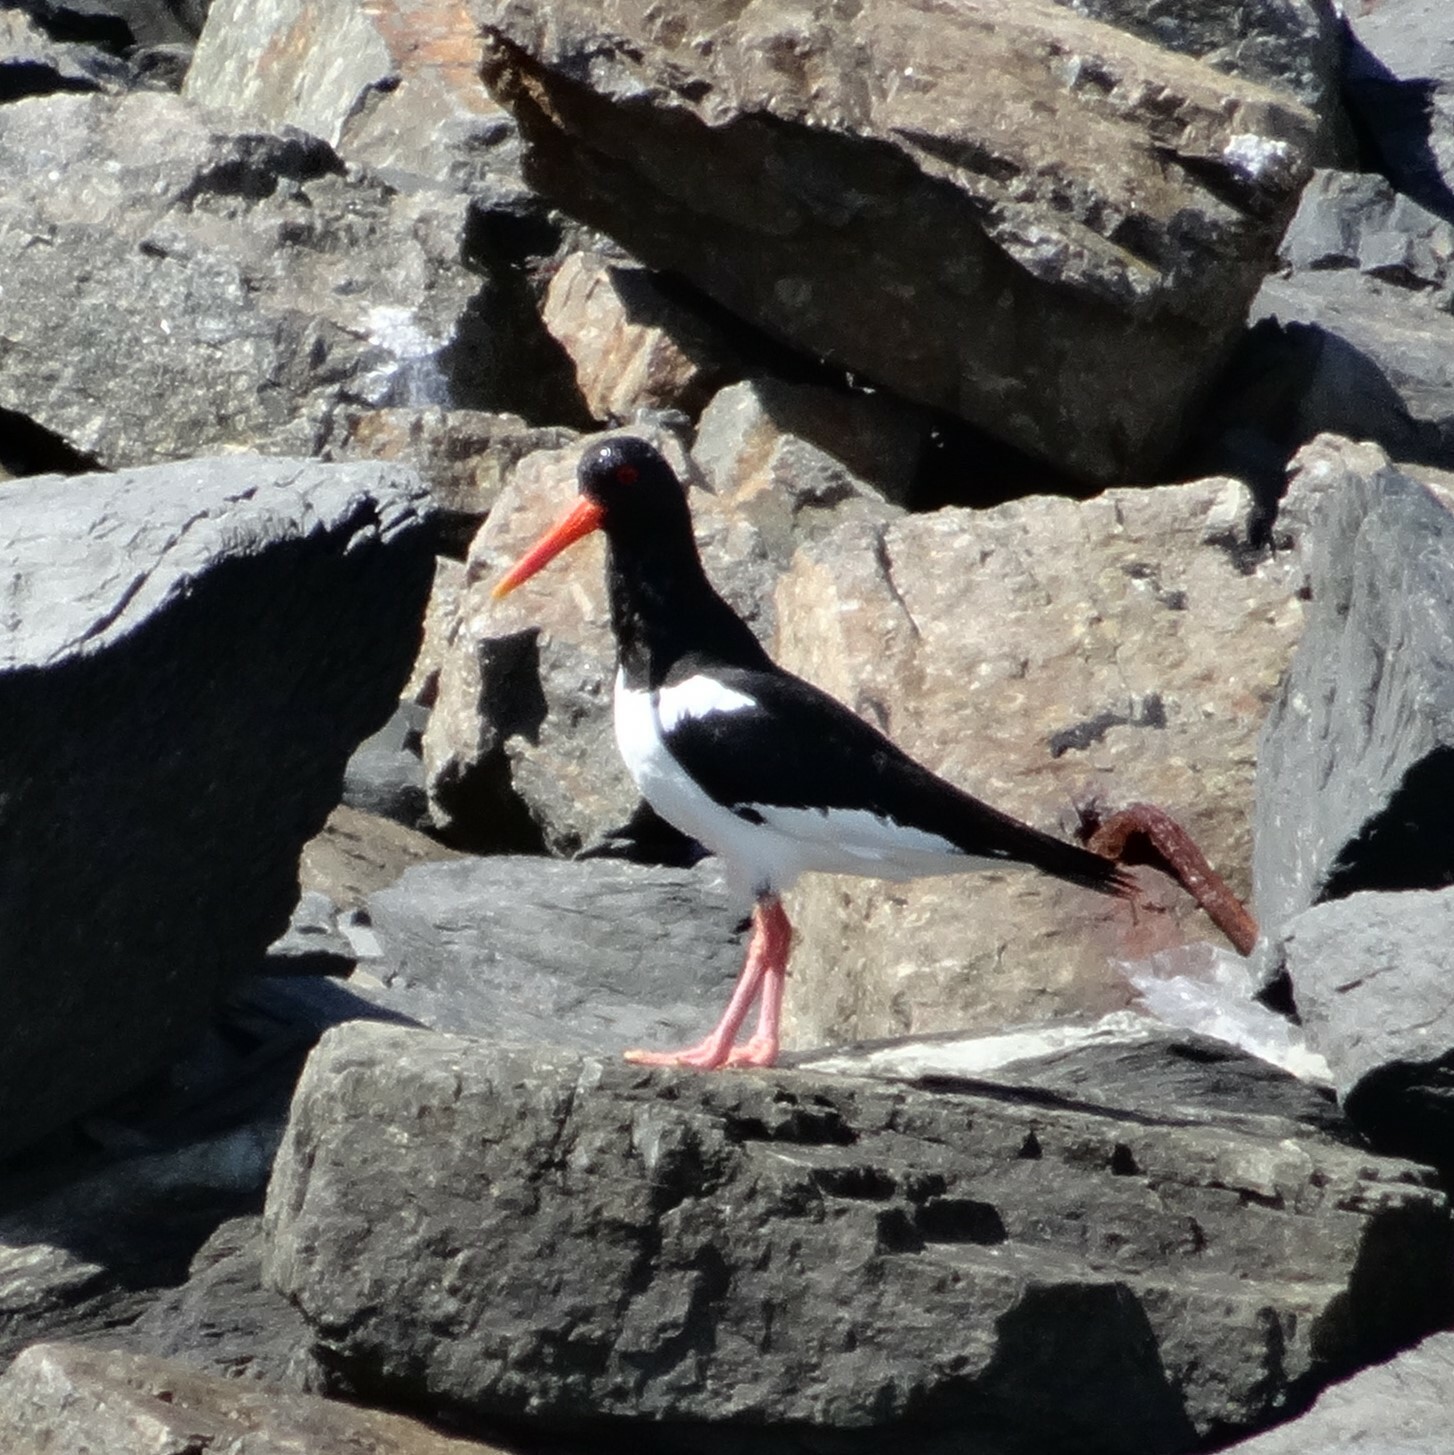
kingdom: Animalia
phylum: Chordata
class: Aves
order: Charadriiformes
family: Haematopodidae
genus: Haematopus
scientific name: Haematopus ostralegus
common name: Eurasian oystercatcher
